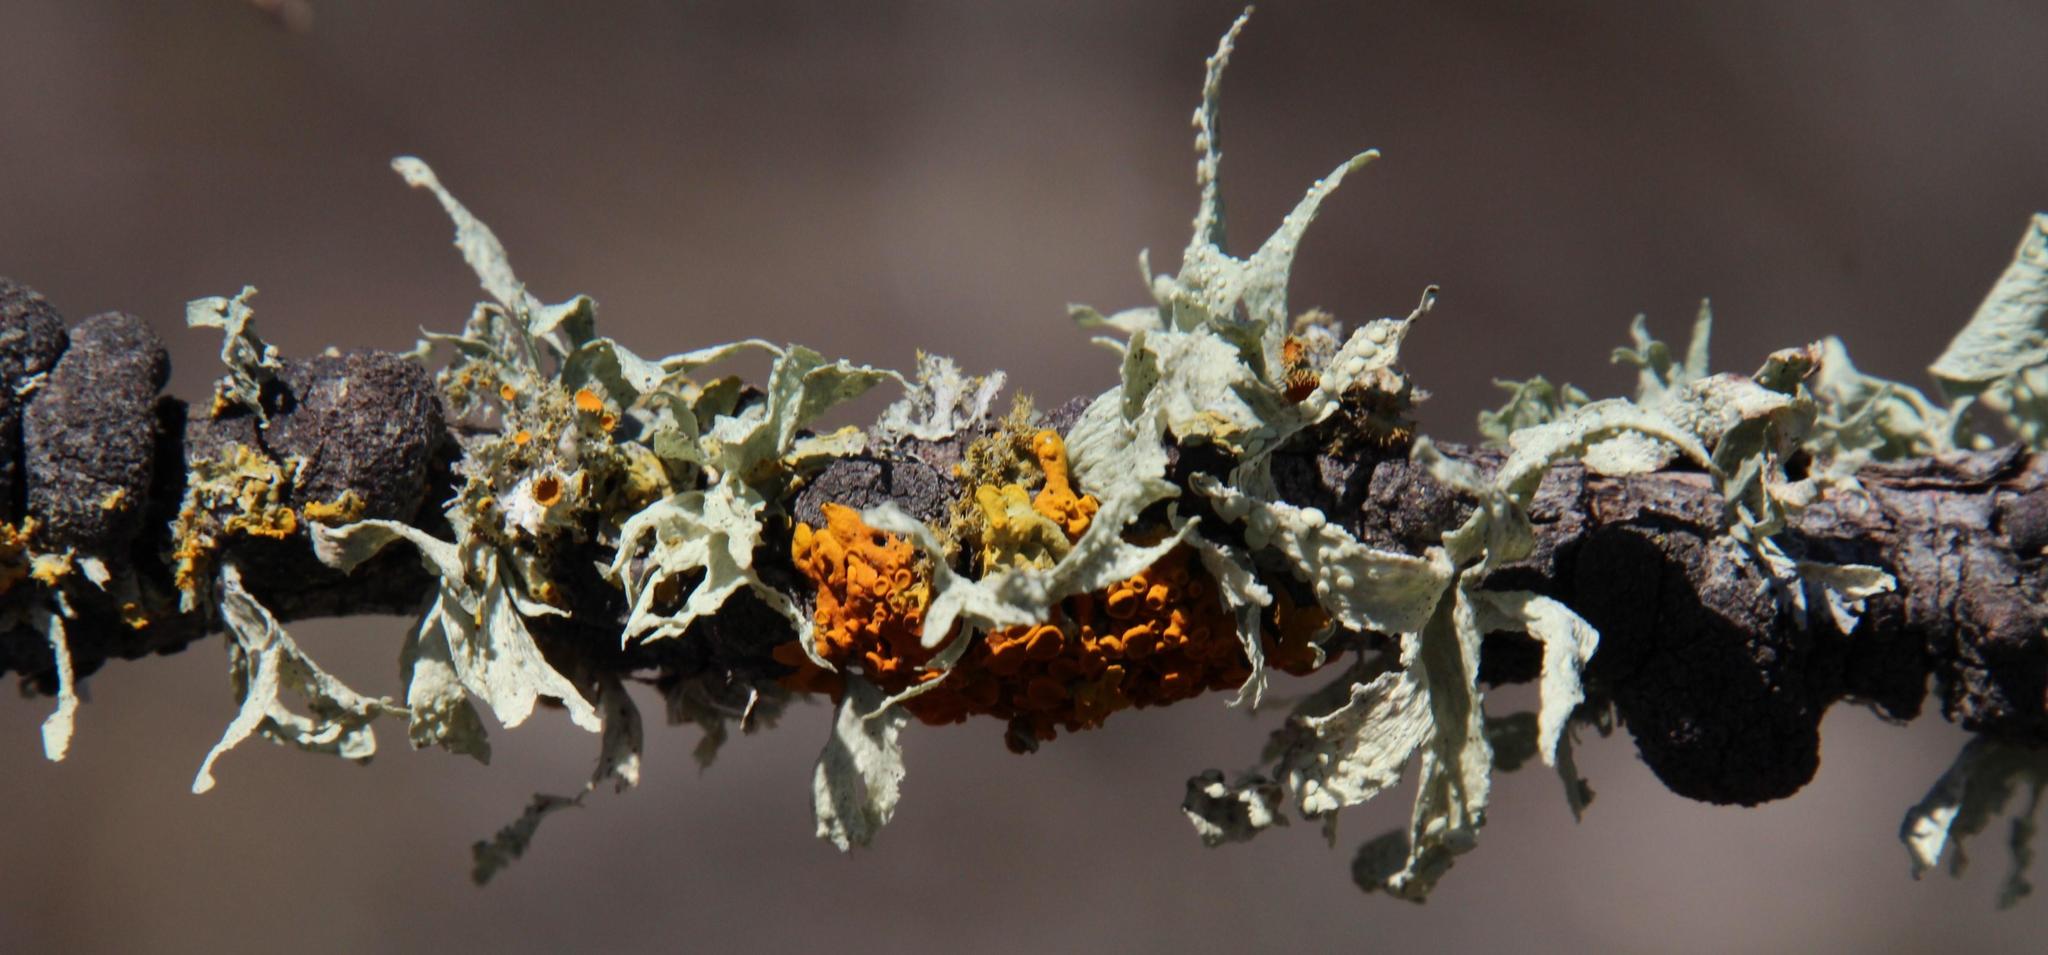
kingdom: Fungi
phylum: Ascomycota
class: Lecanoromycetes
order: Lecanorales
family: Ramalinaceae
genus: Ramalina
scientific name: Ramalina celastri
